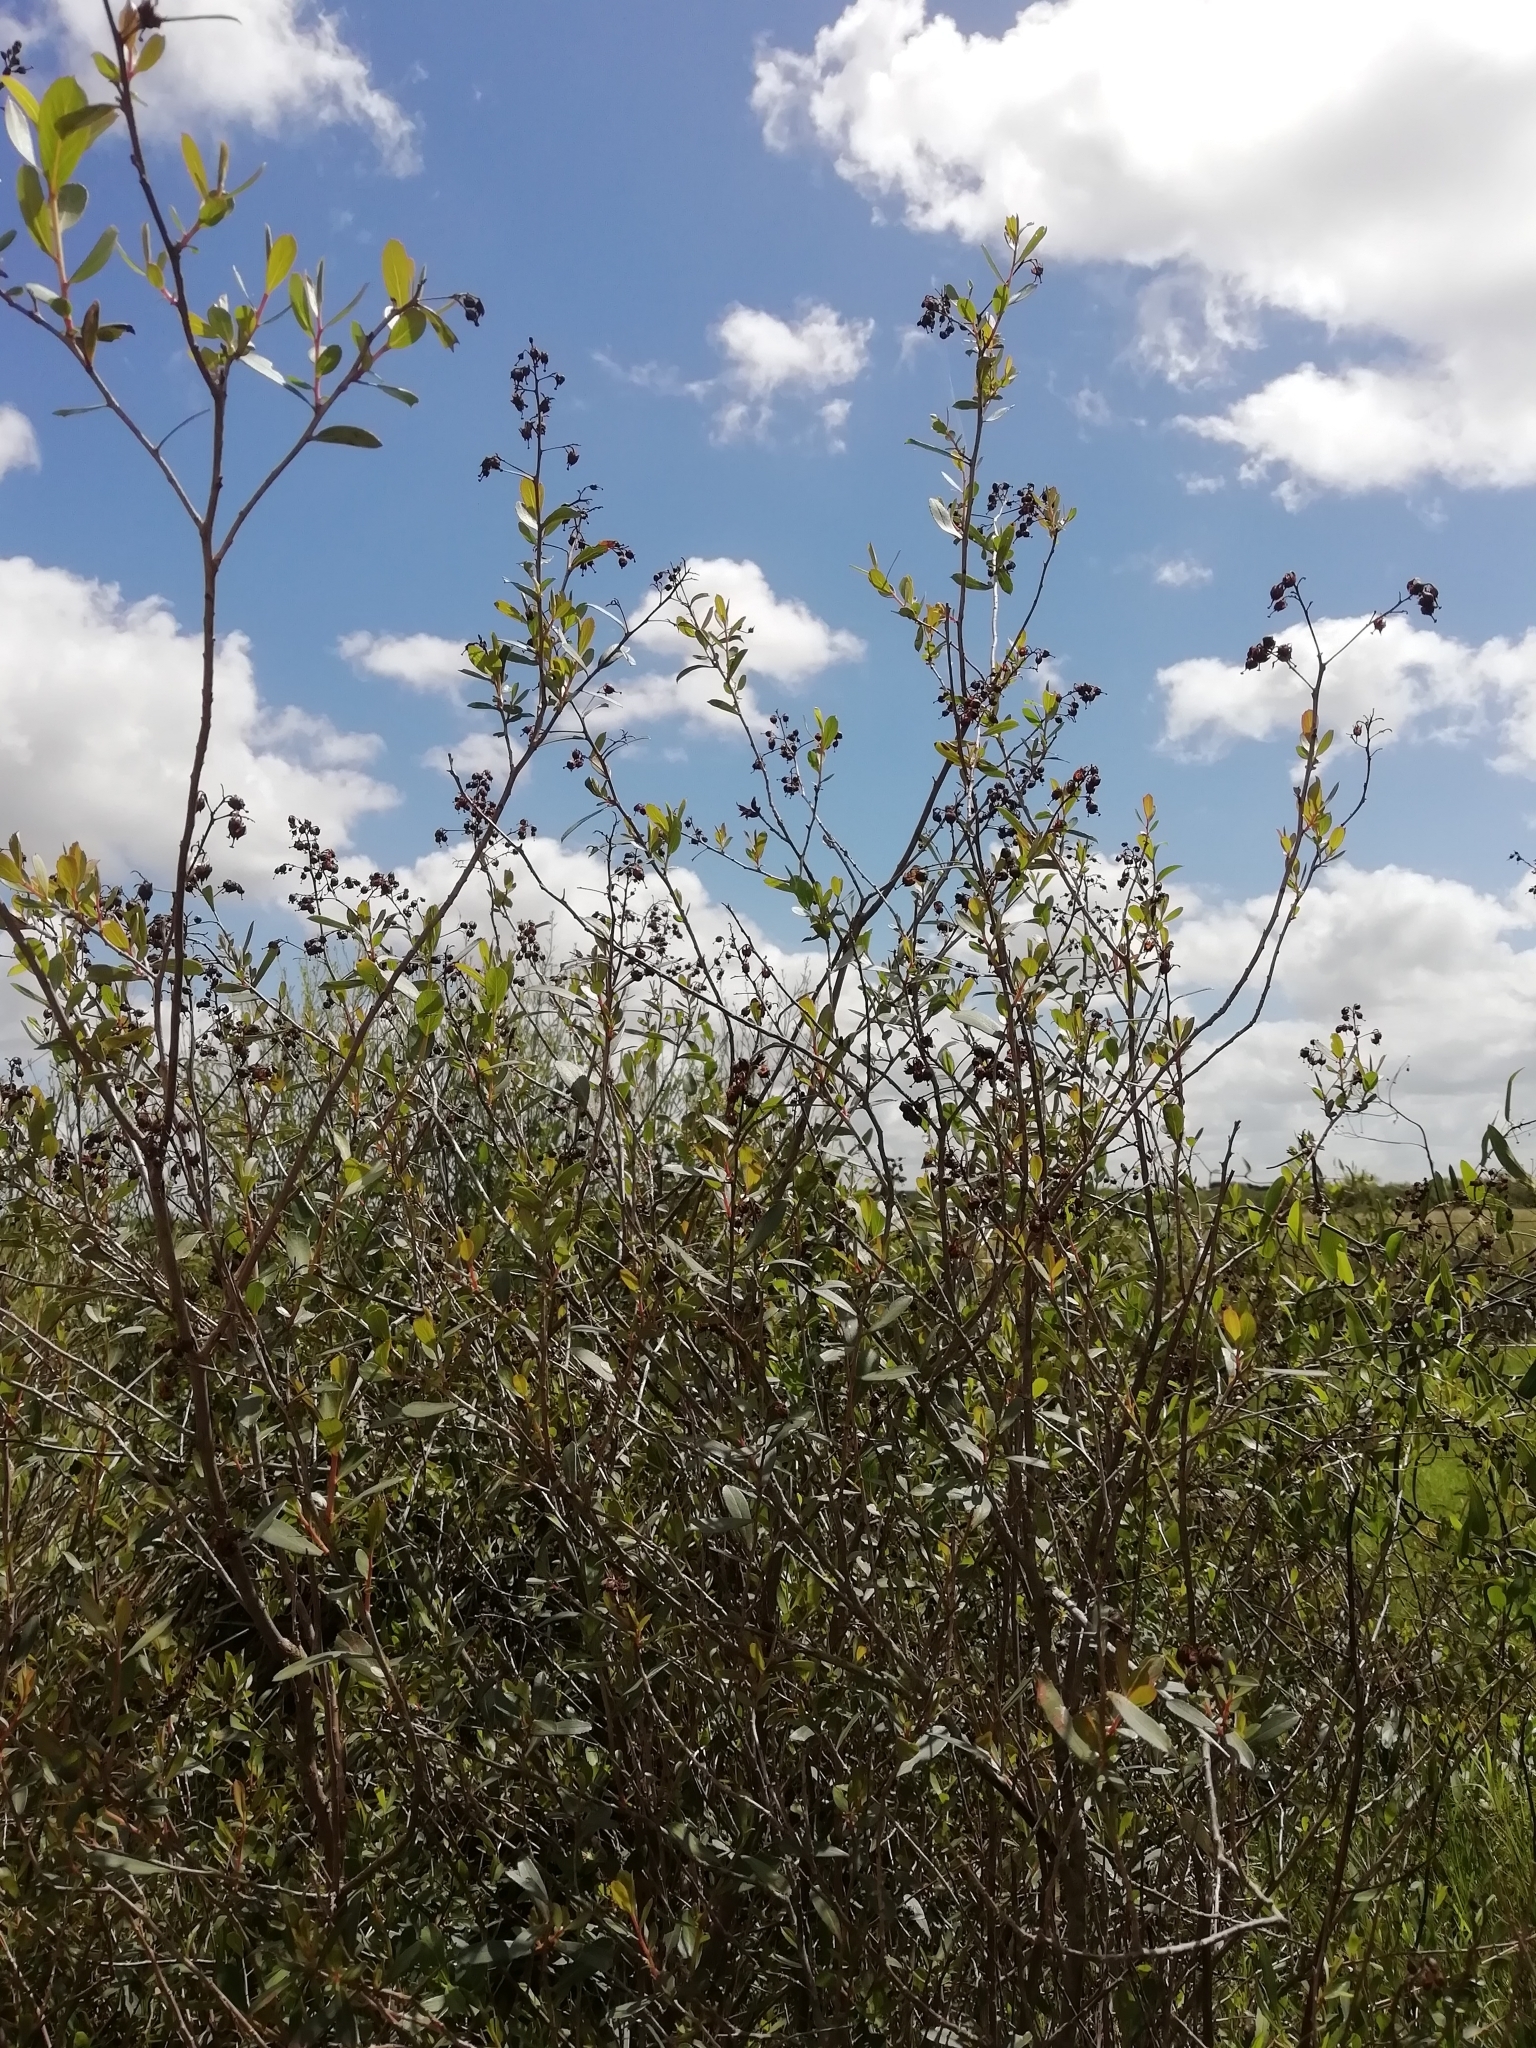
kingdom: Plantae
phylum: Tracheophyta
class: Magnoliopsida
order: Escalloniales
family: Escalloniaceae
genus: Escallonia
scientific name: Escallonia megapotamica
